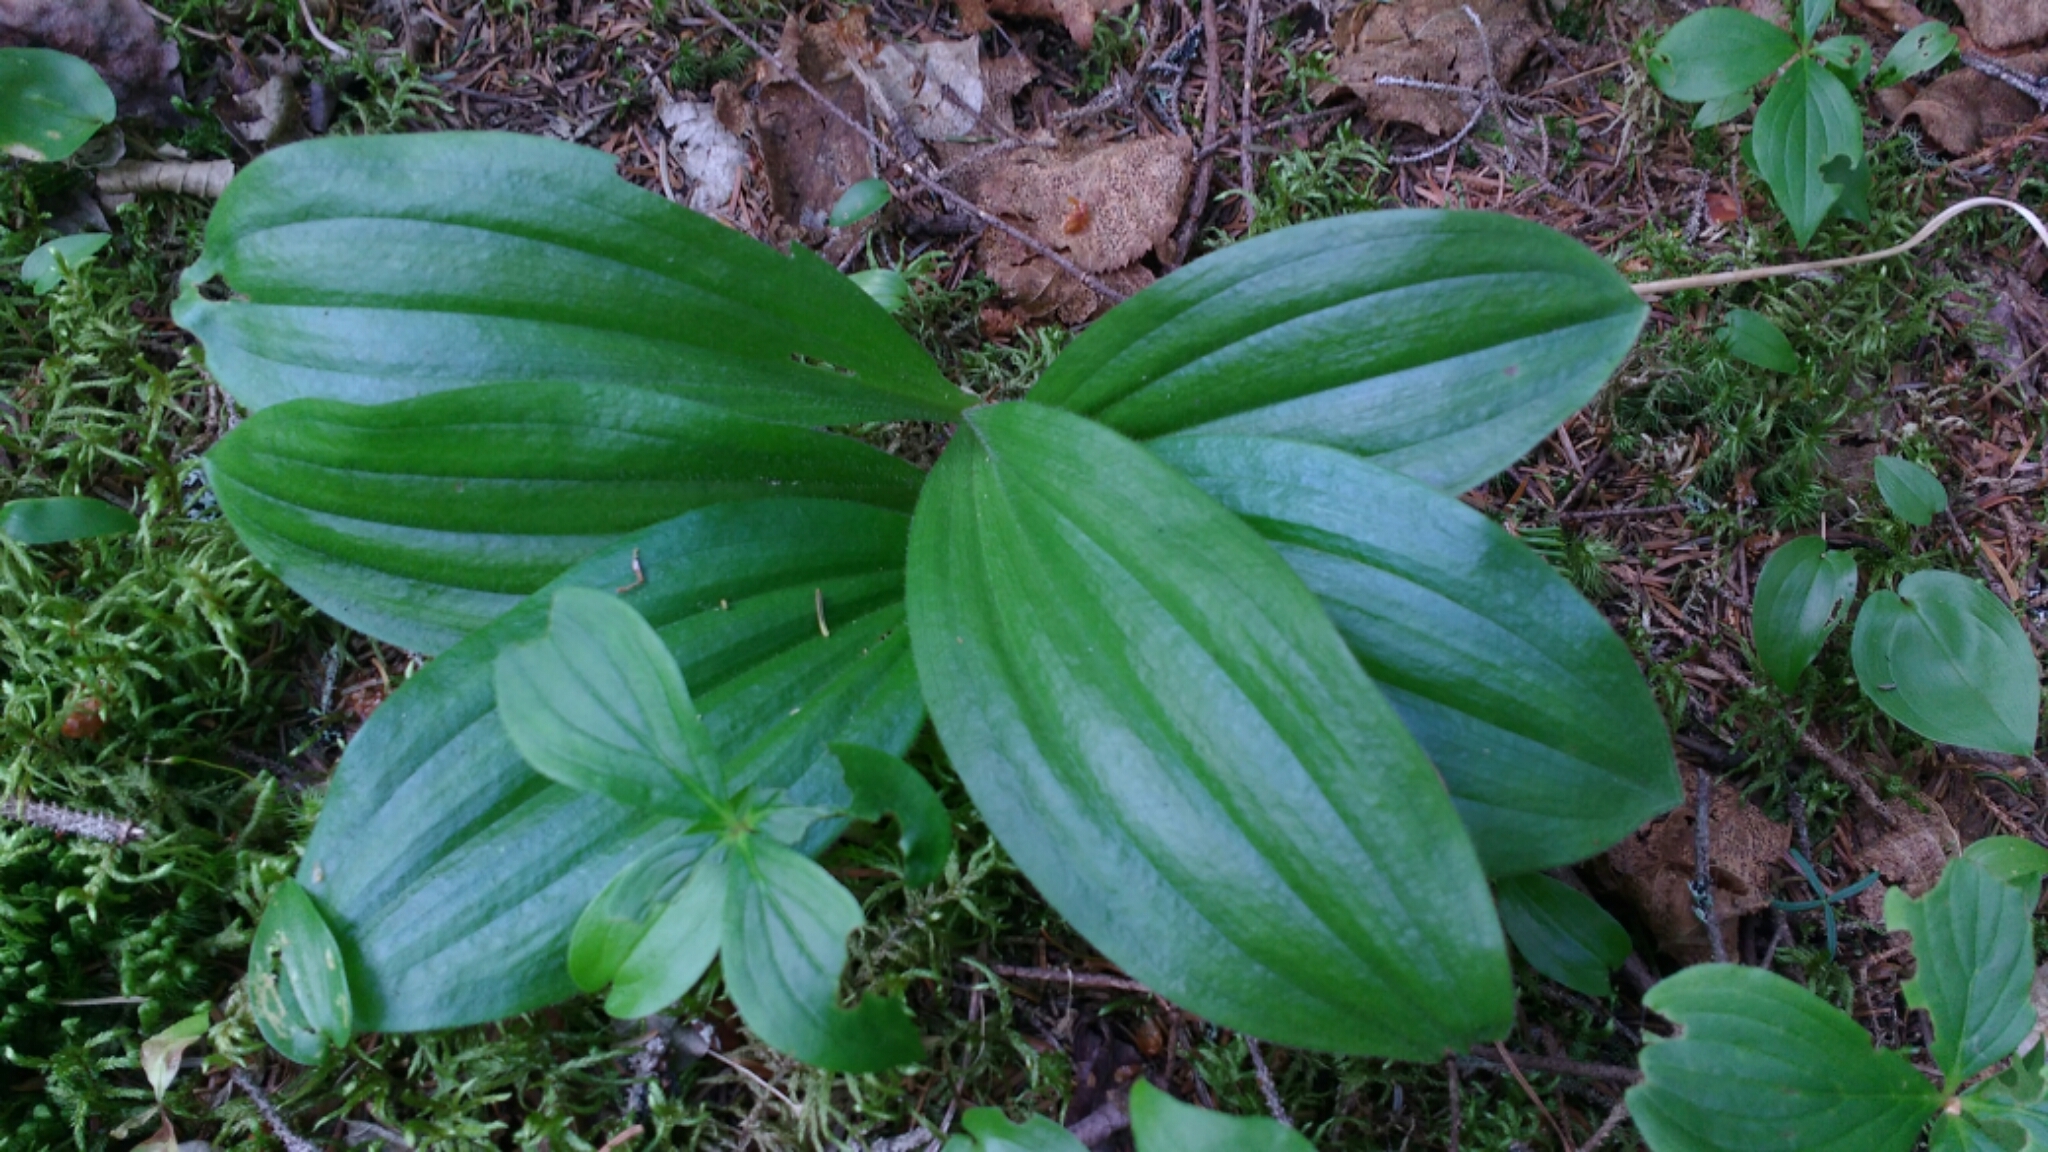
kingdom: Plantae
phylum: Tracheophyta
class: Liliopsida
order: Asparagales
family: Orchidaceae
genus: Cypripedium
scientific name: Cypripedium acaule
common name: Pink lady's-slipper
